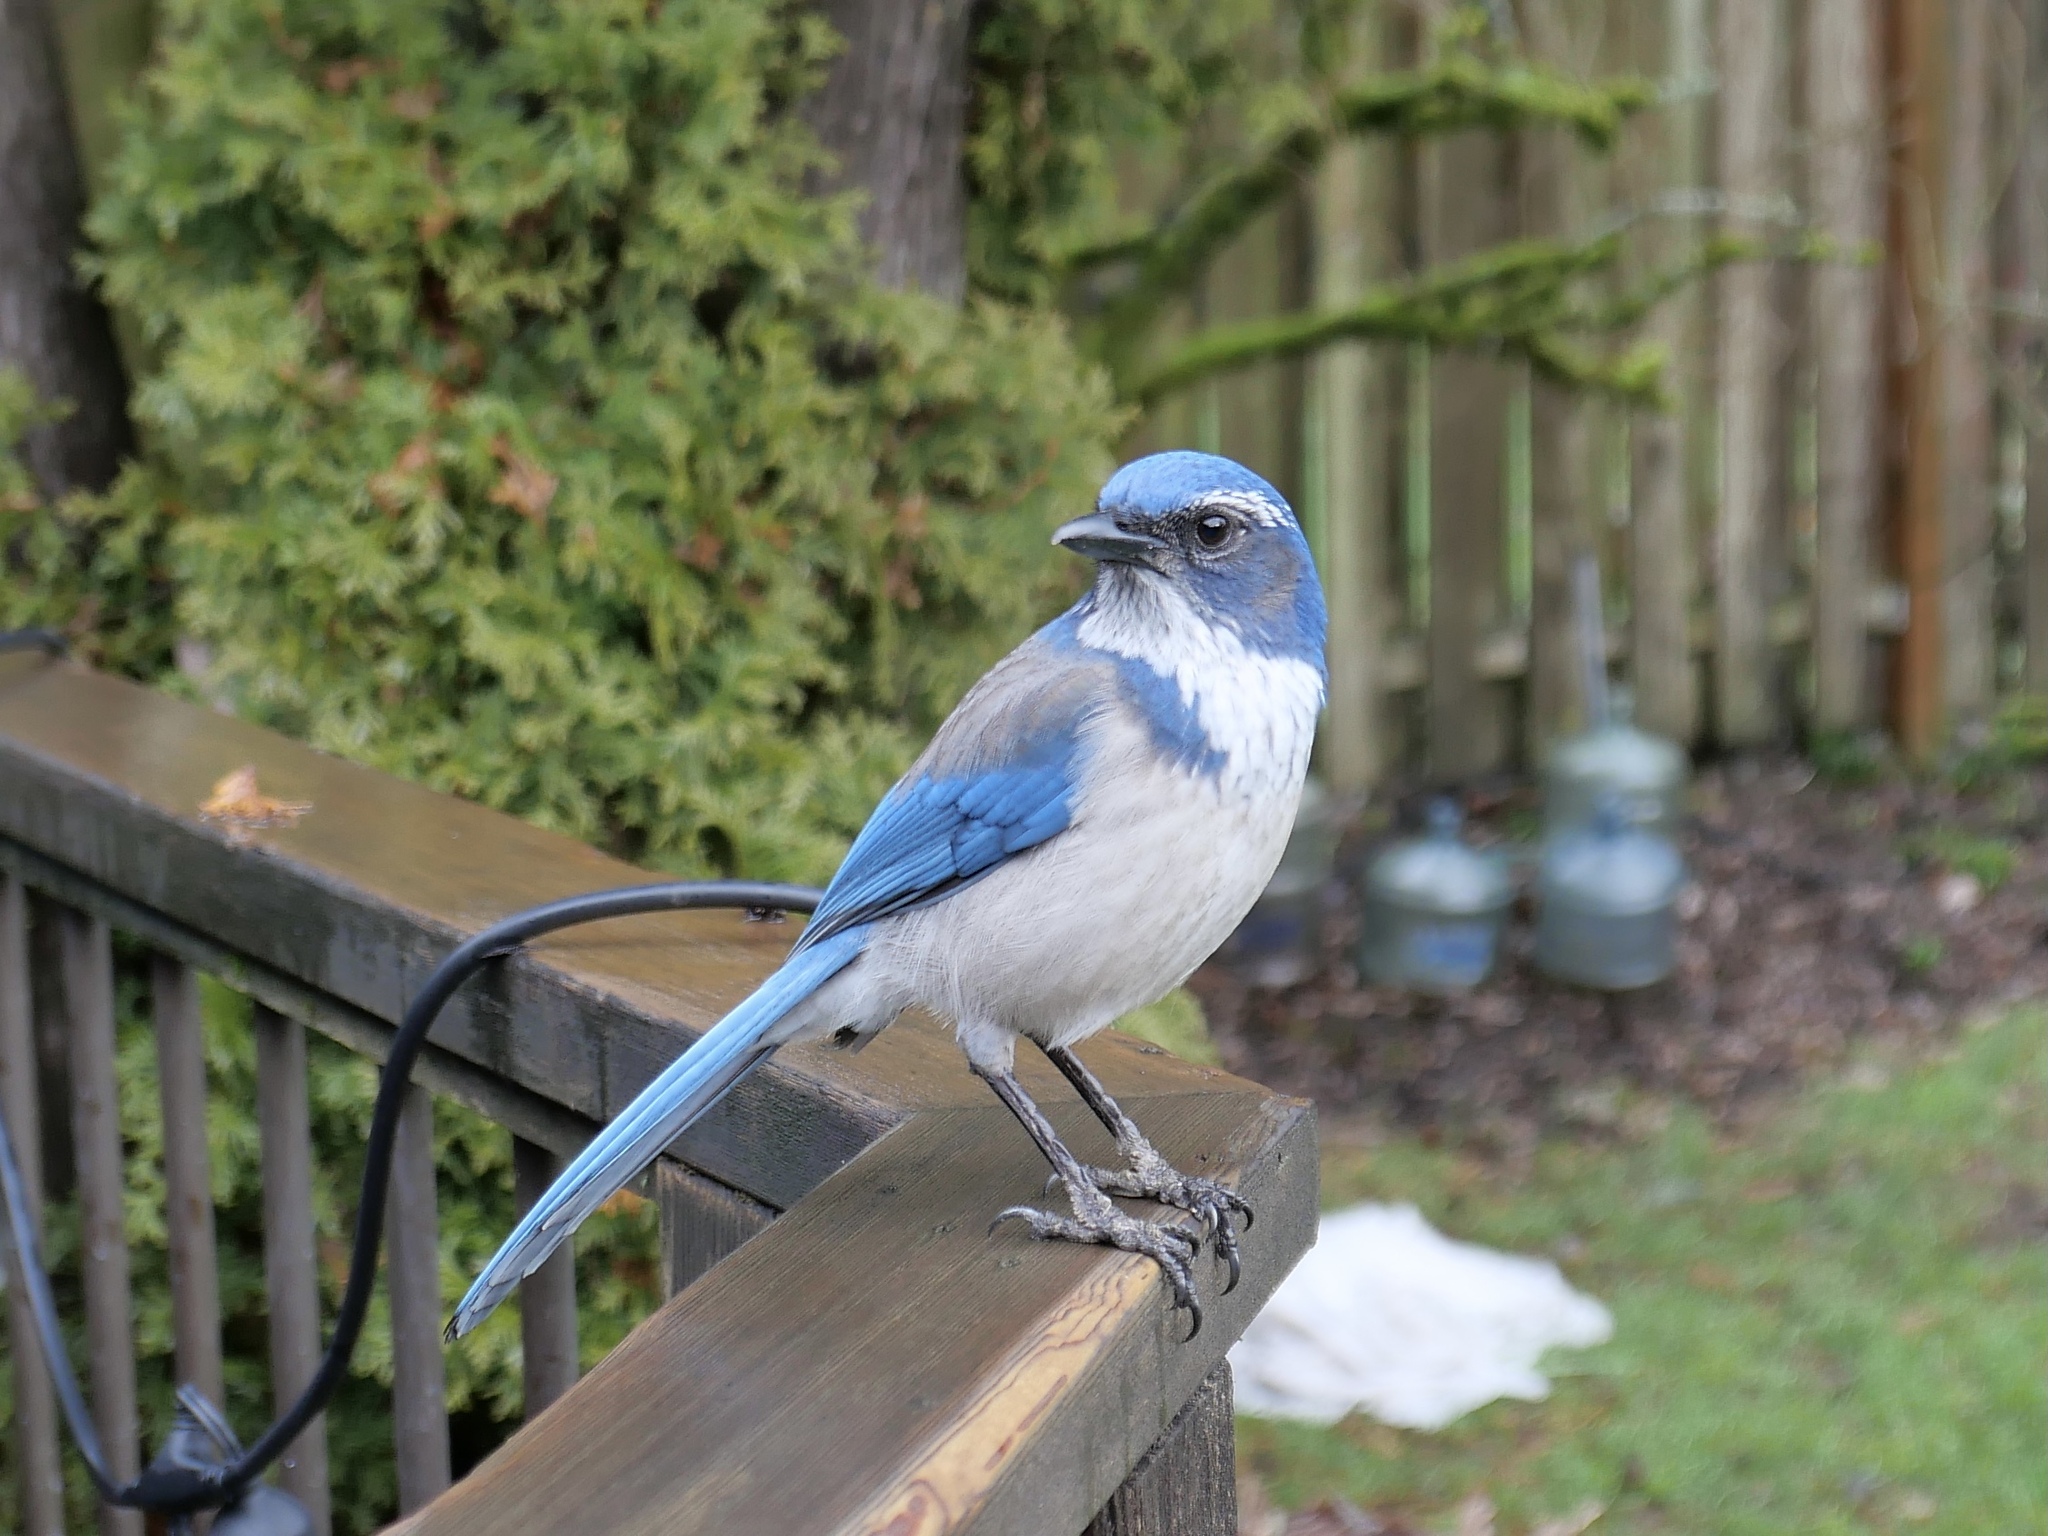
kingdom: Animalia
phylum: Chordata
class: Aves
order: Passeriformes
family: Corvidae
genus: Aphelocoma
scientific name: Aphelocoma californica
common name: California scrub-jay
